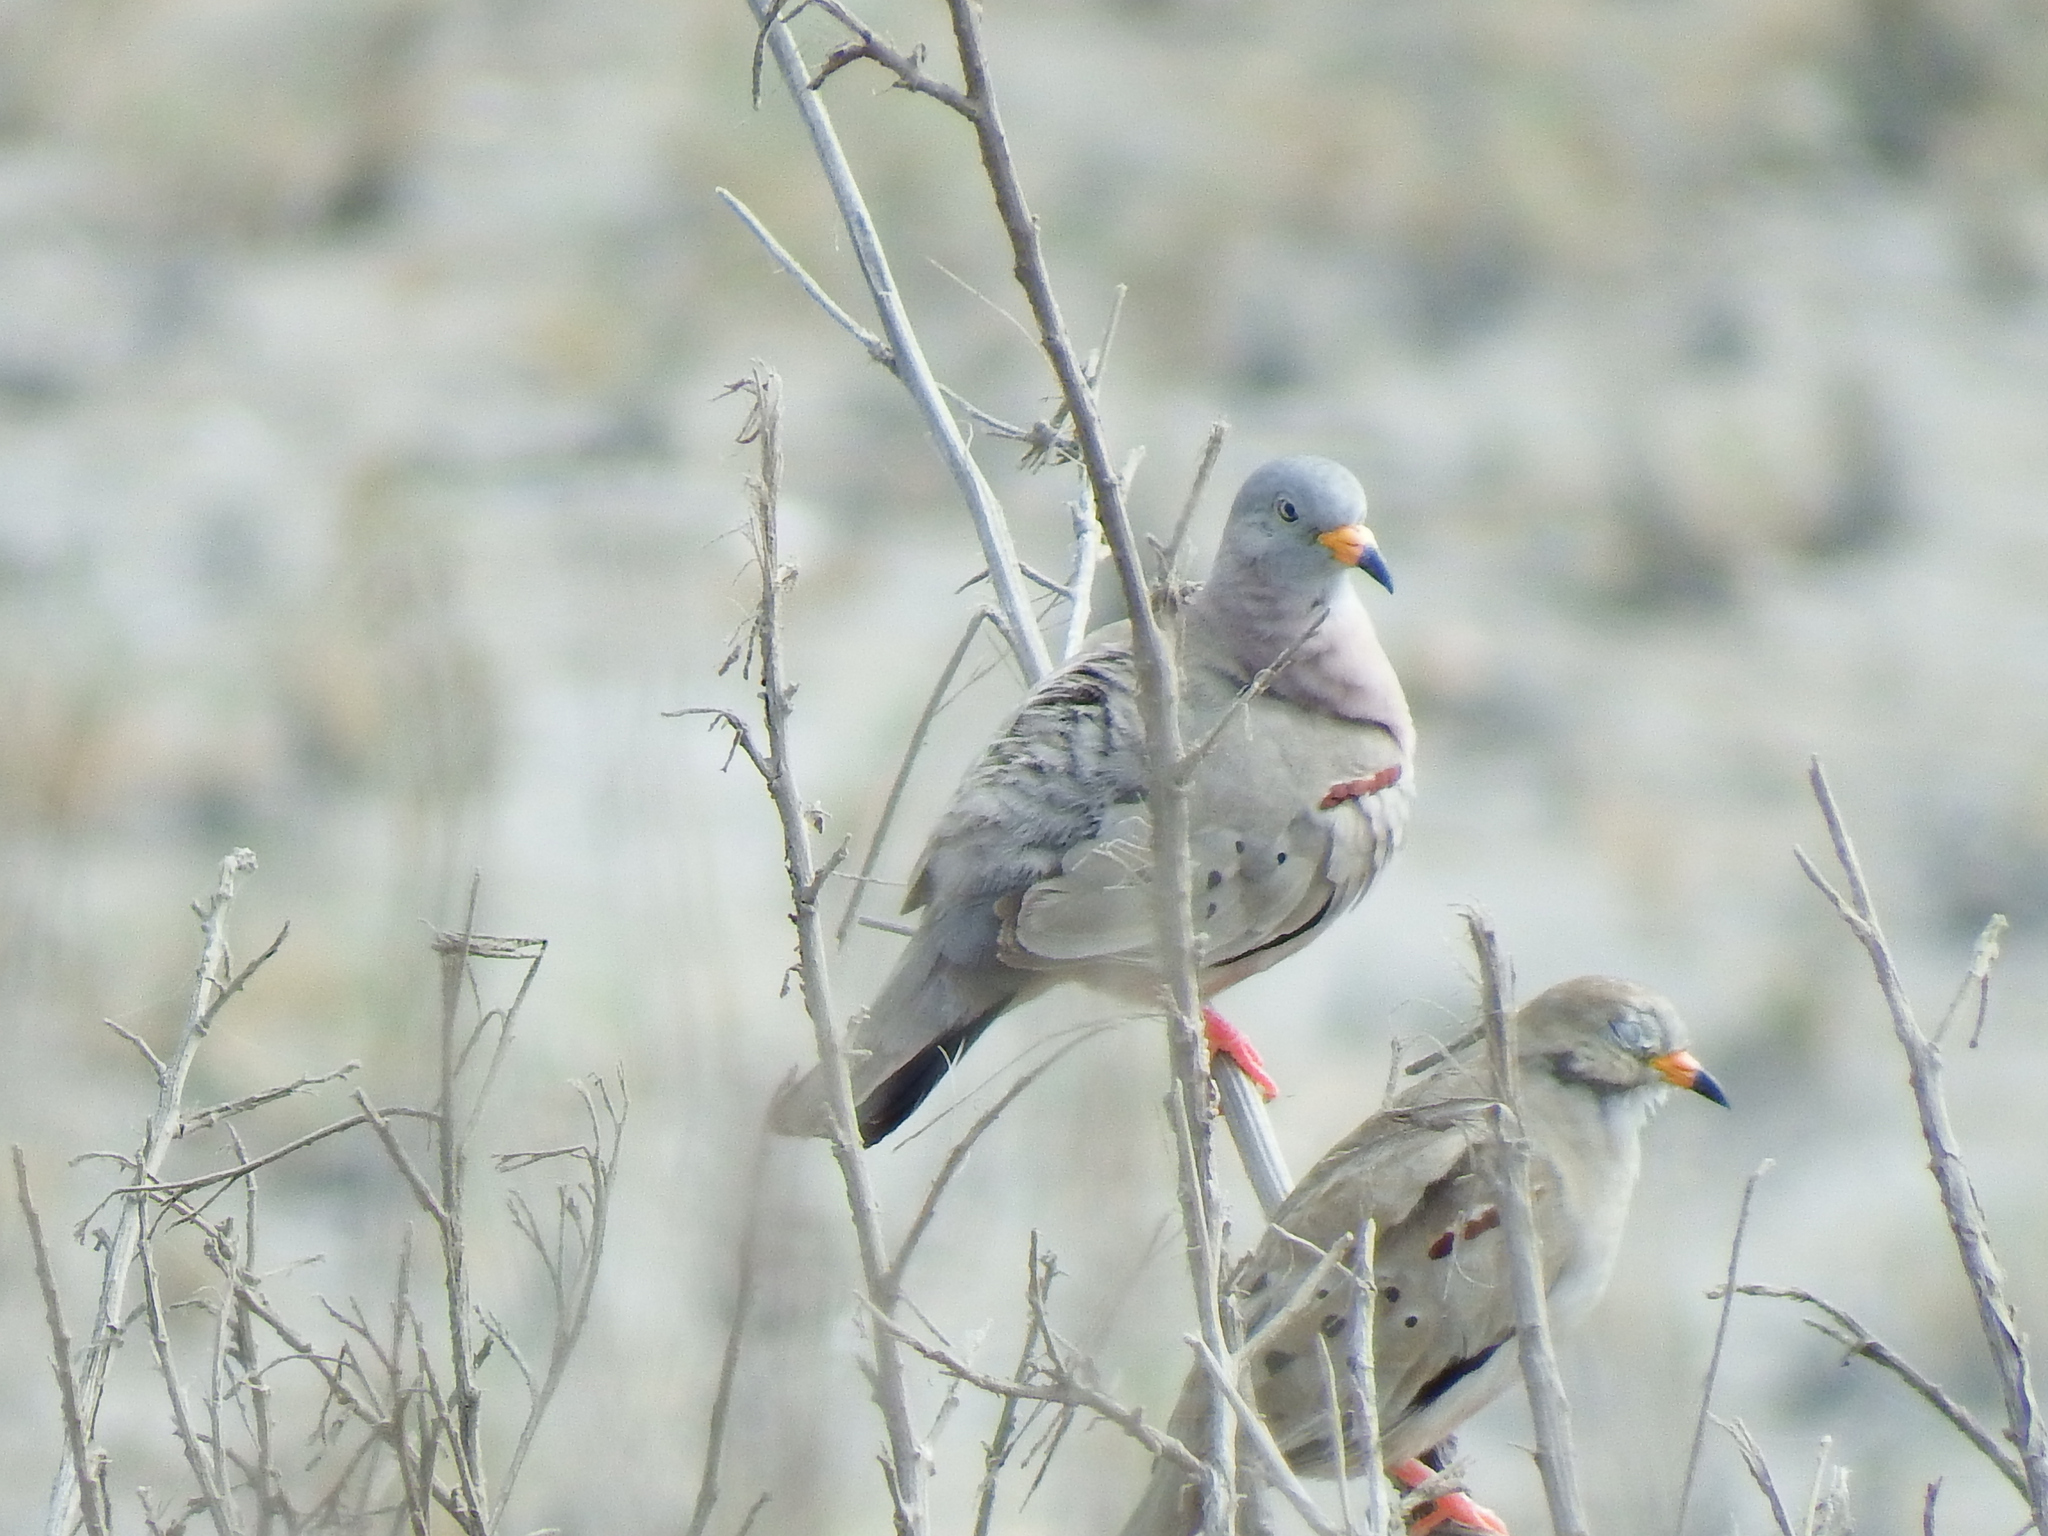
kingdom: Animalia
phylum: Chordata
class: Aves
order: Columbiformes
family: Columbidae
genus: Columbina
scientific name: Columbina cruziana
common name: Croaking ground dove
